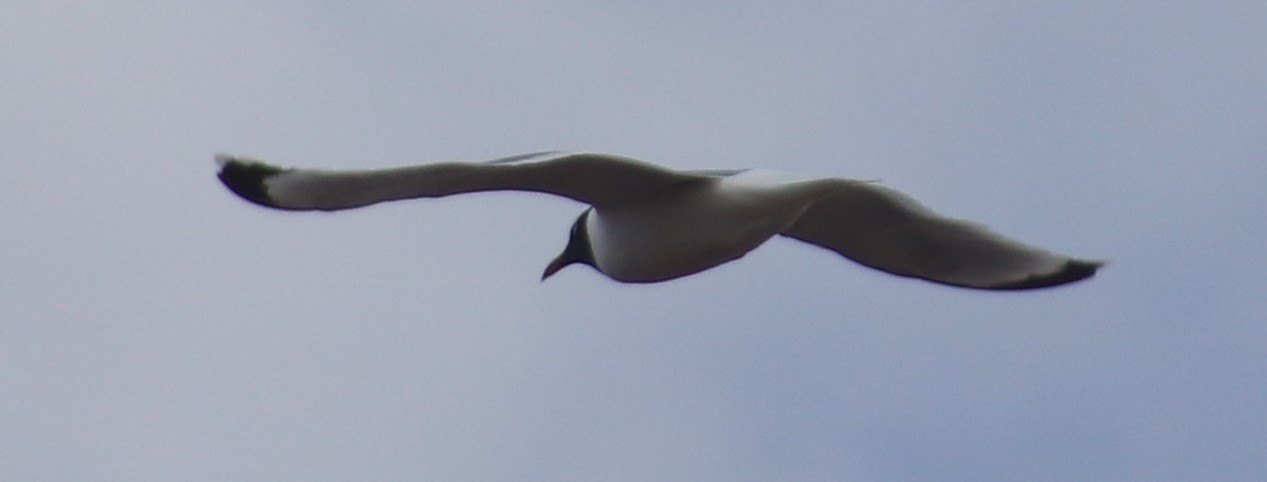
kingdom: Animalia
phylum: Chordata
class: Aves
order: Charadriiformes
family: Laridae
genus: Leucophaeus
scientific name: Leucophaeus pipixcan
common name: Franklin's gull
